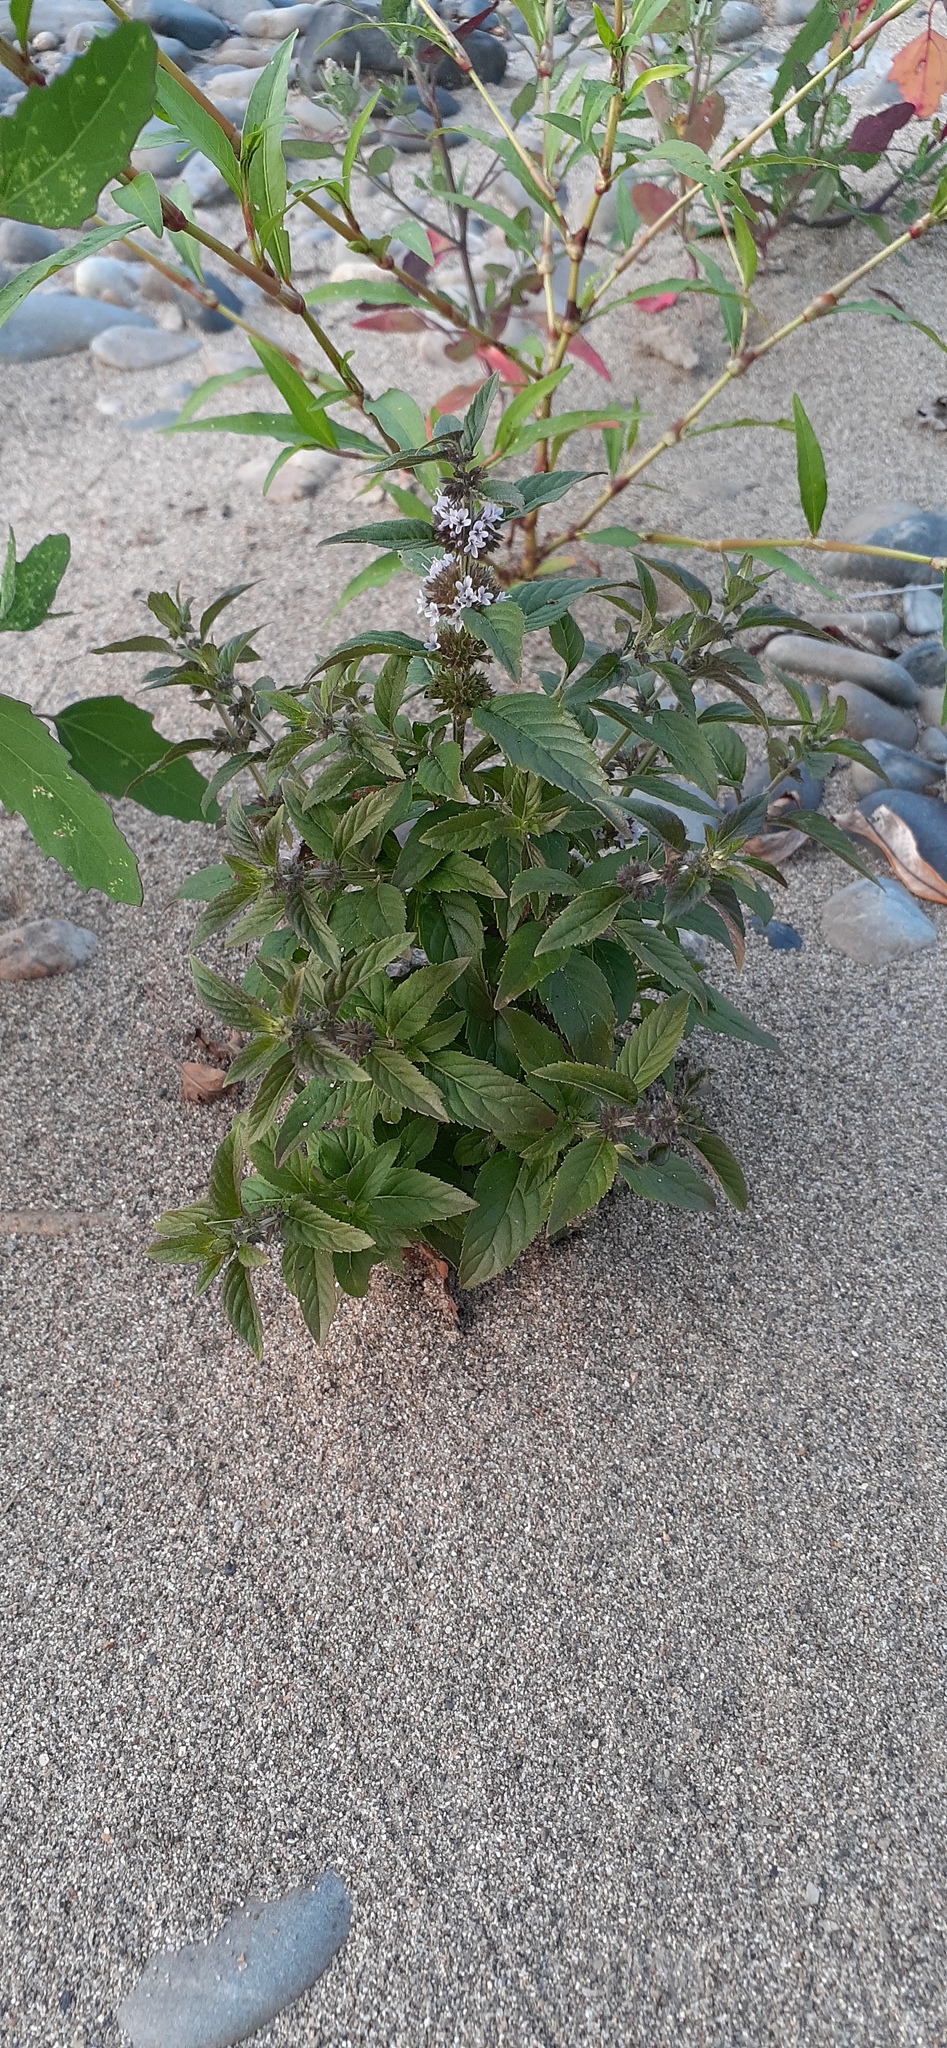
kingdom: Plantae
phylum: Tracheophyta
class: Magnoliopsida
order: Lamiales
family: Lamiaceae
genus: Mentha
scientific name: Mentha canadensis
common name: American corn mint
